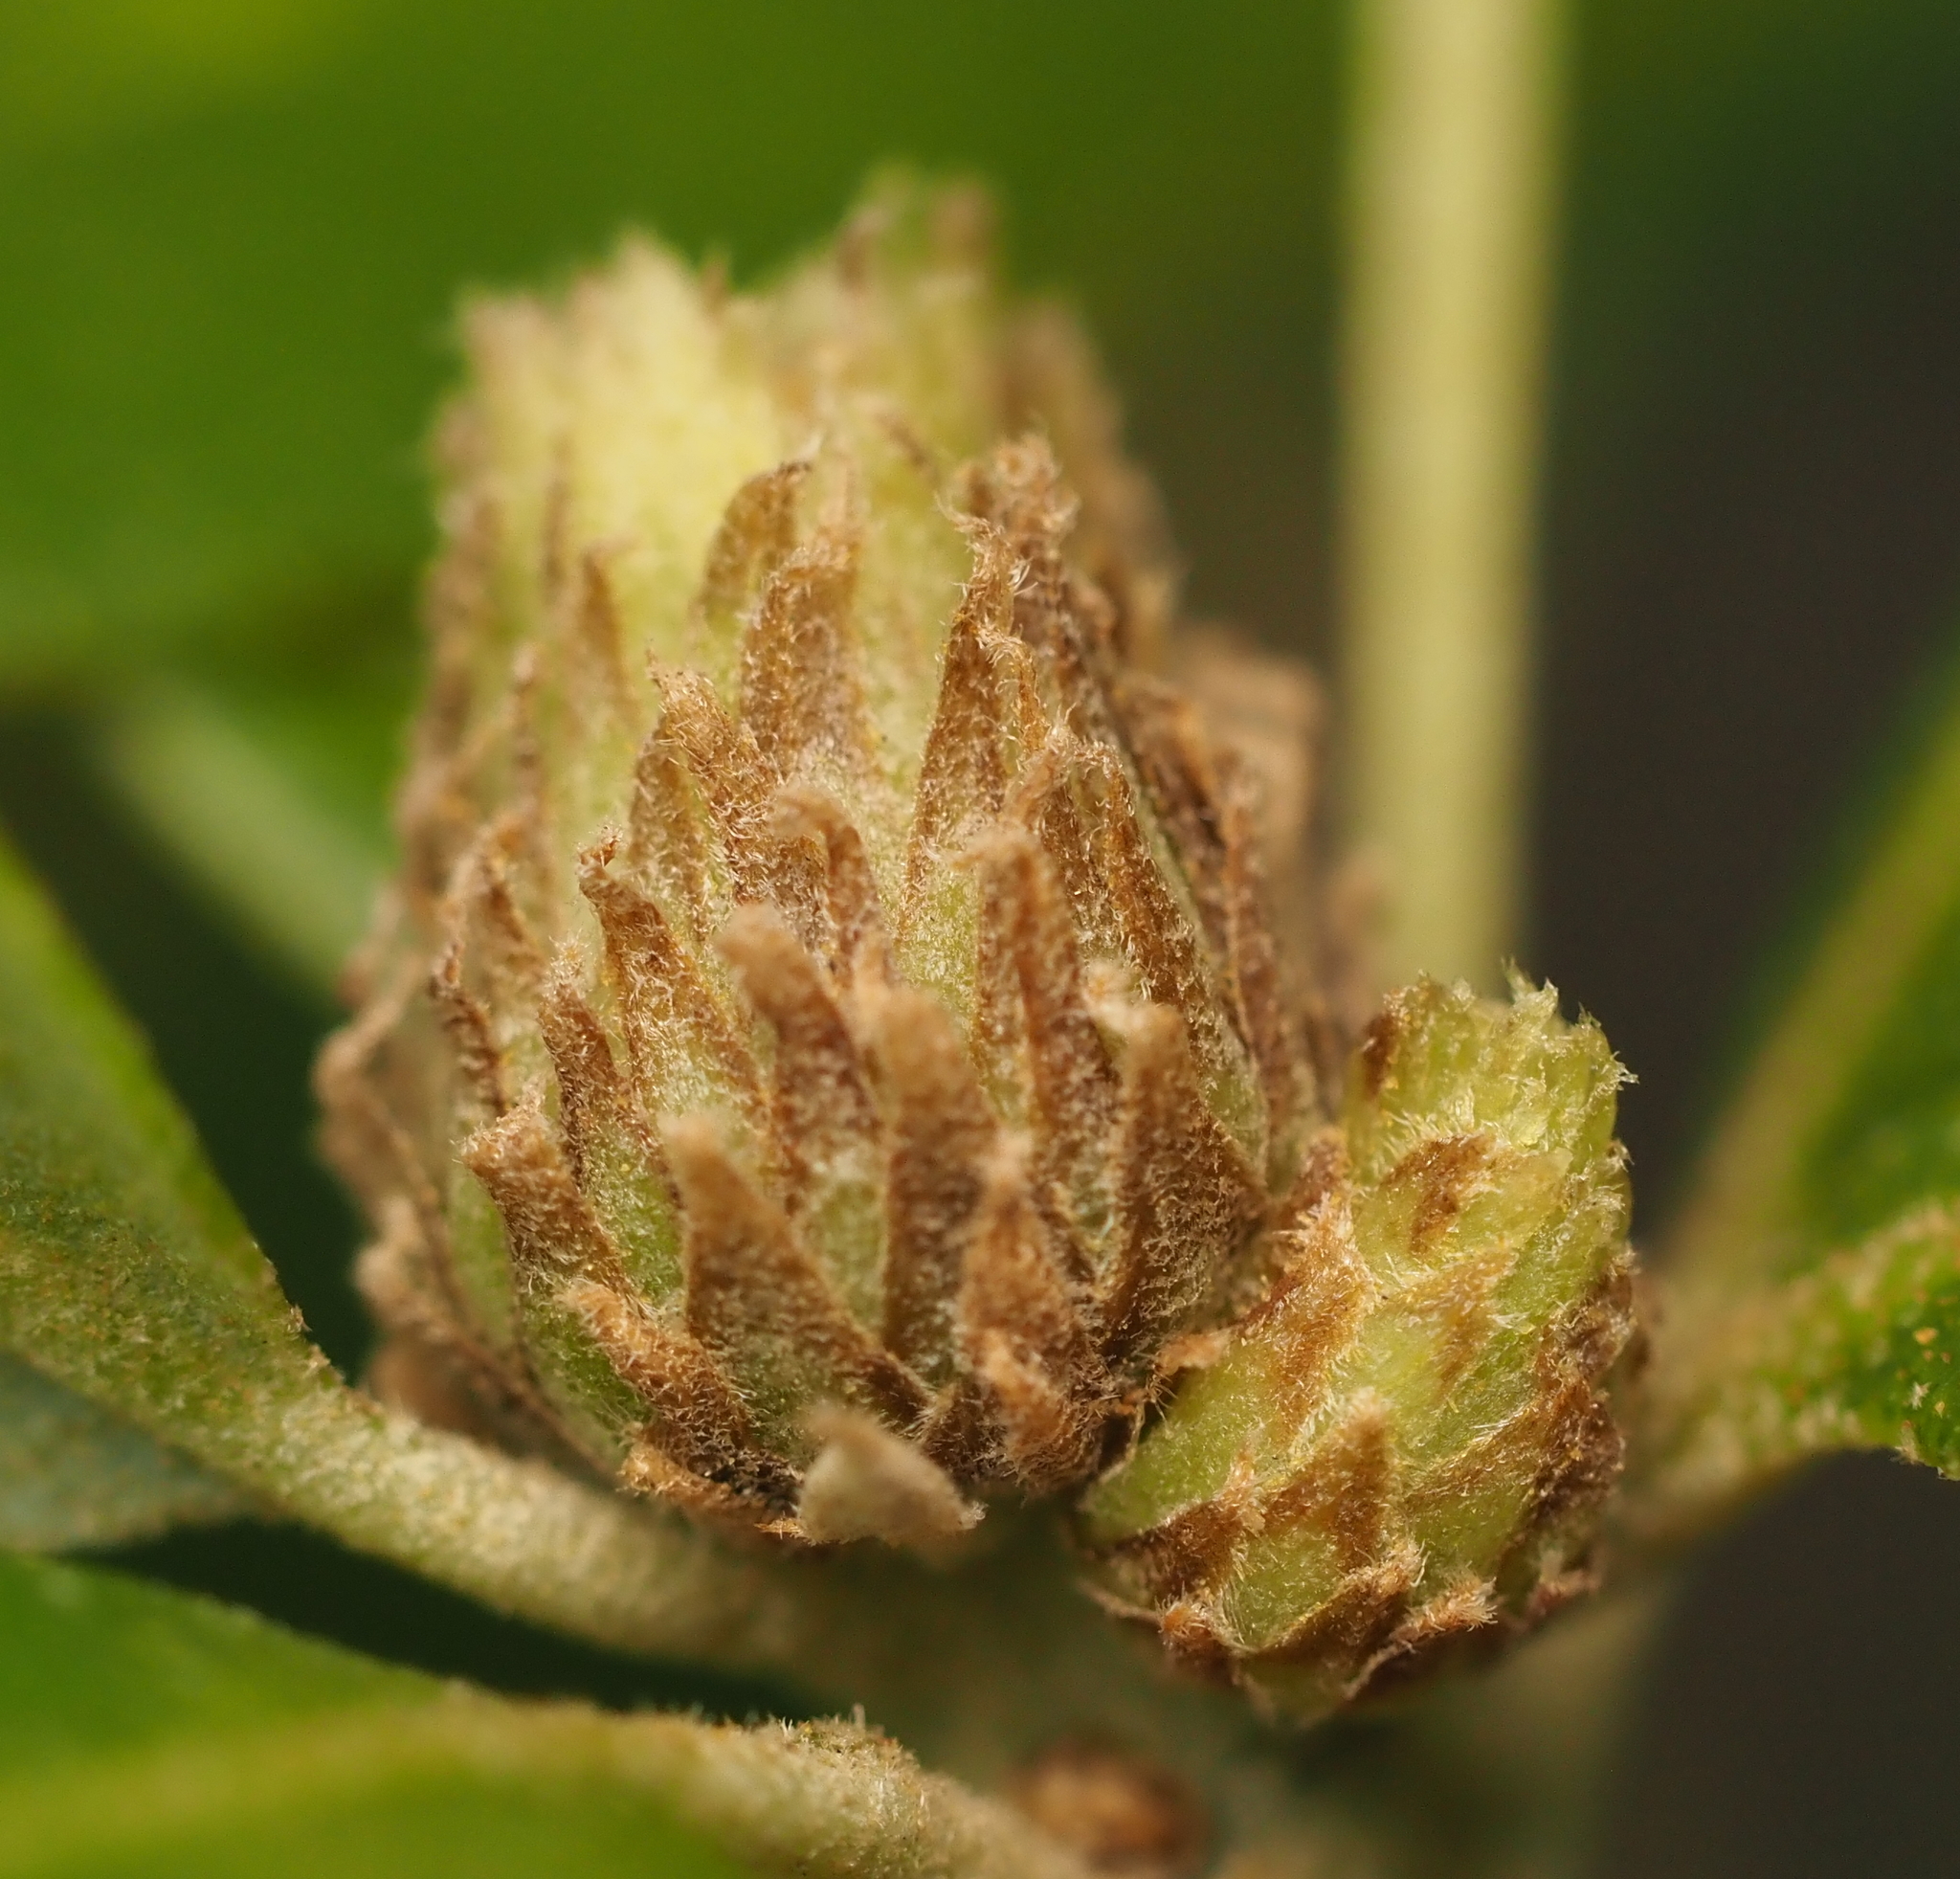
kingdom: Animalia
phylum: Arthropoda
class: Insecta
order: Hymenoptera
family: Cynipidae
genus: Andricus
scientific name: Andricus quercusfoliatus
